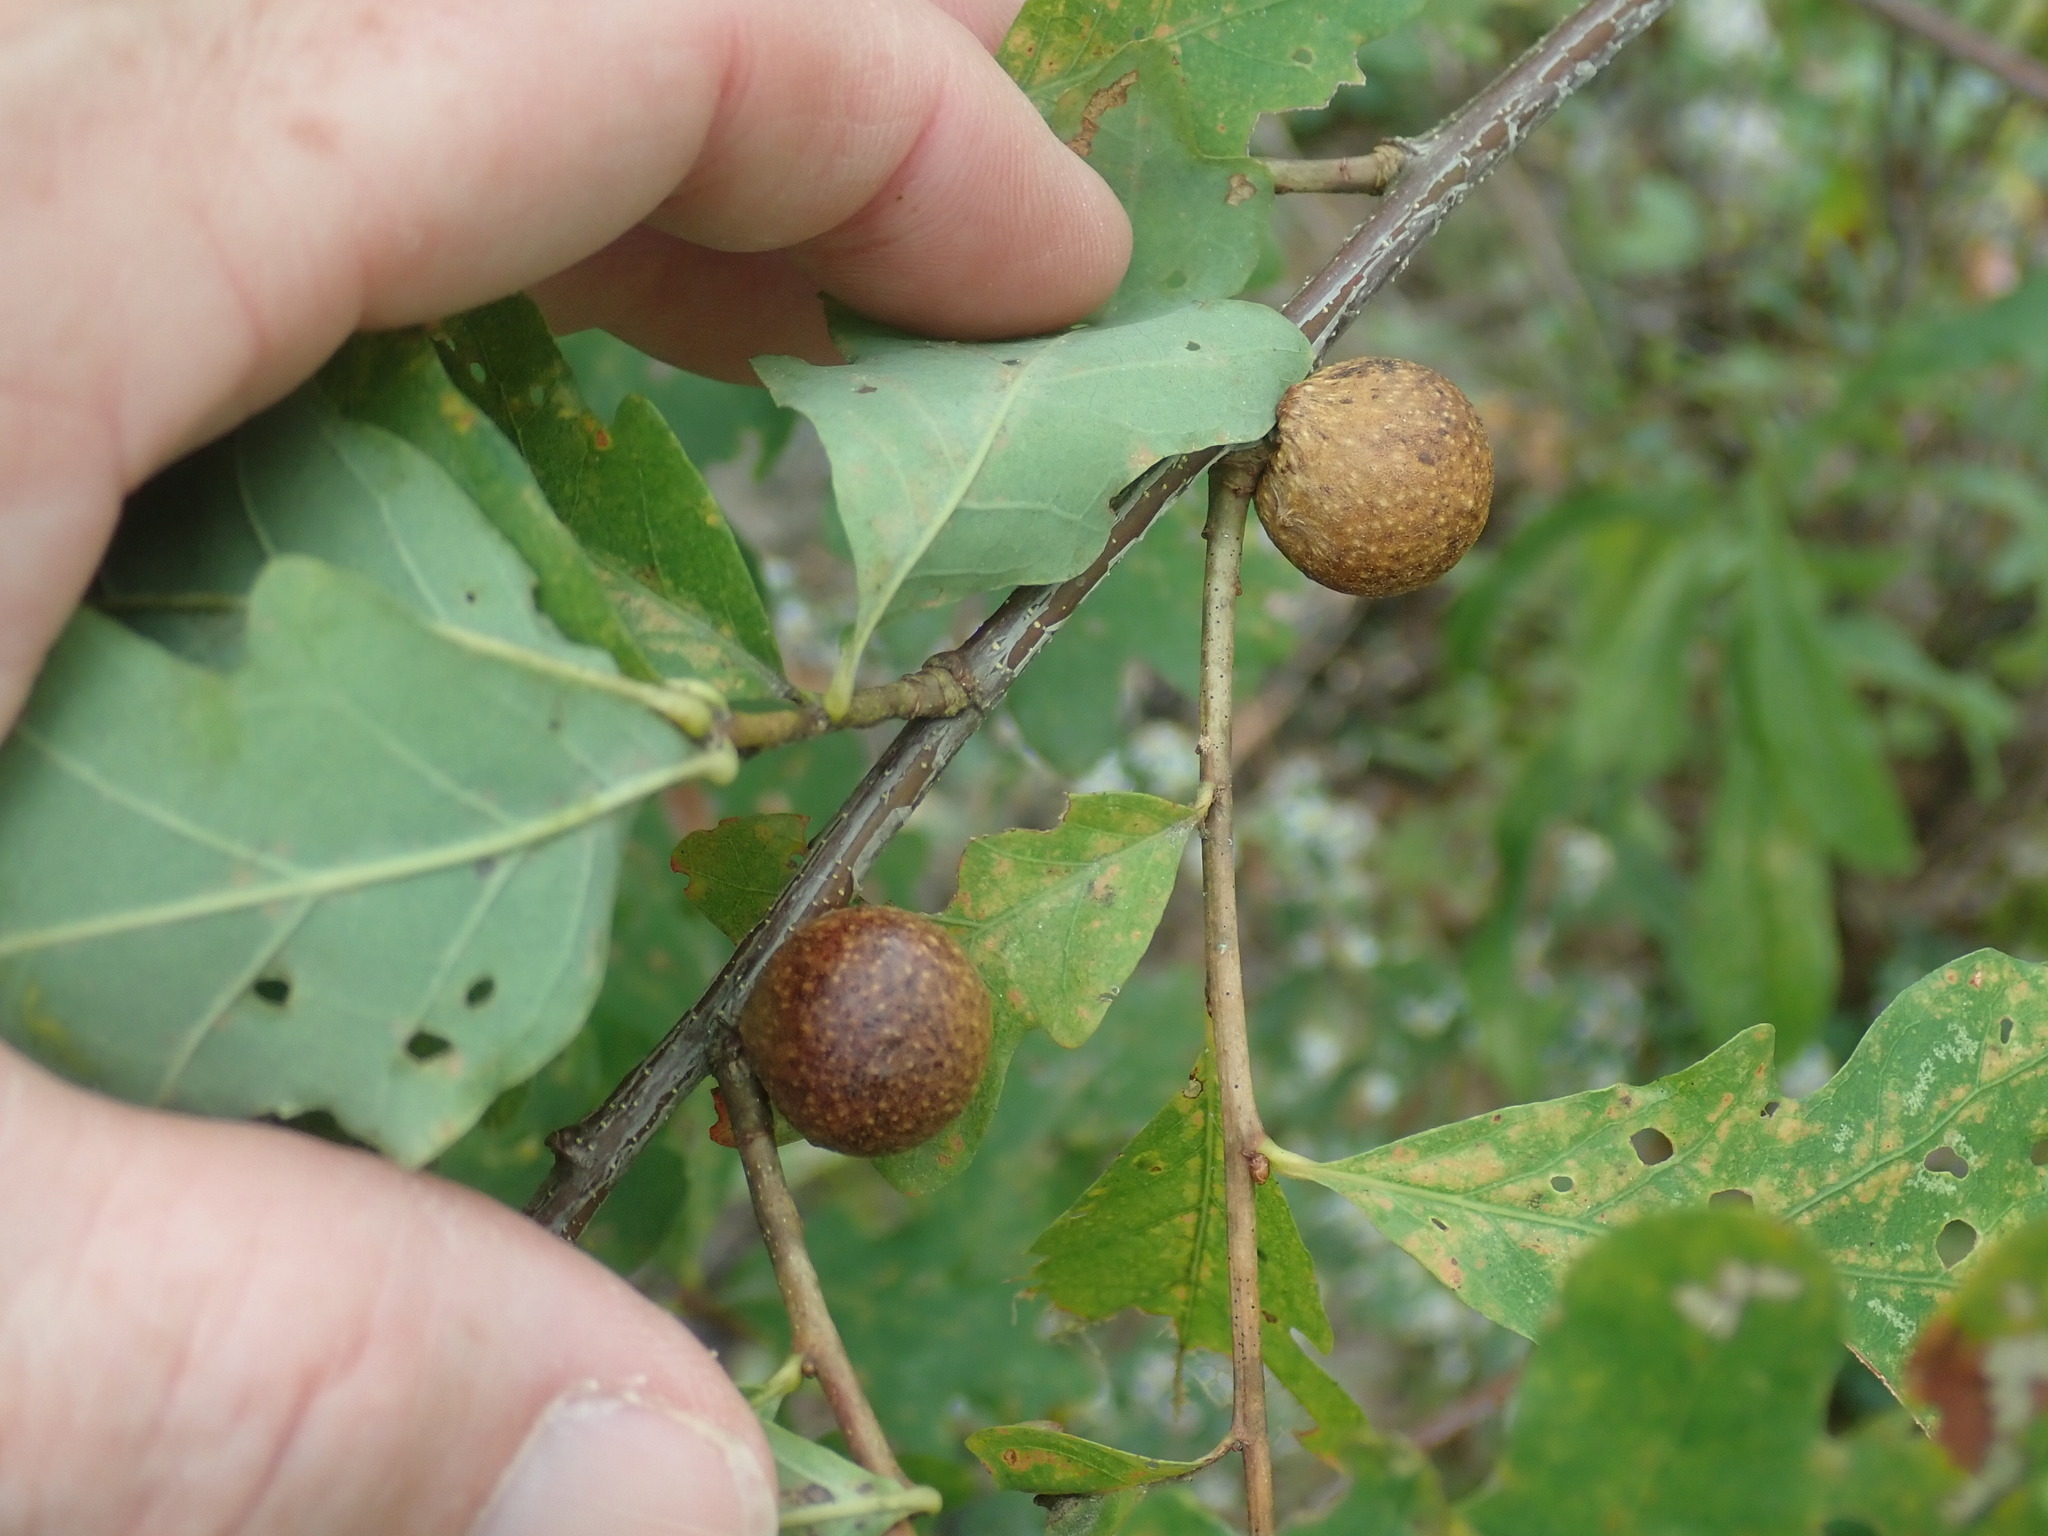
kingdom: Animalia
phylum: Arthropoda
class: Insecta
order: Hymenoptera
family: Cynipidae
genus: Disholcaspis
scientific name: Disholcaspis quercusglobulus
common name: Round bullet gall wasp
